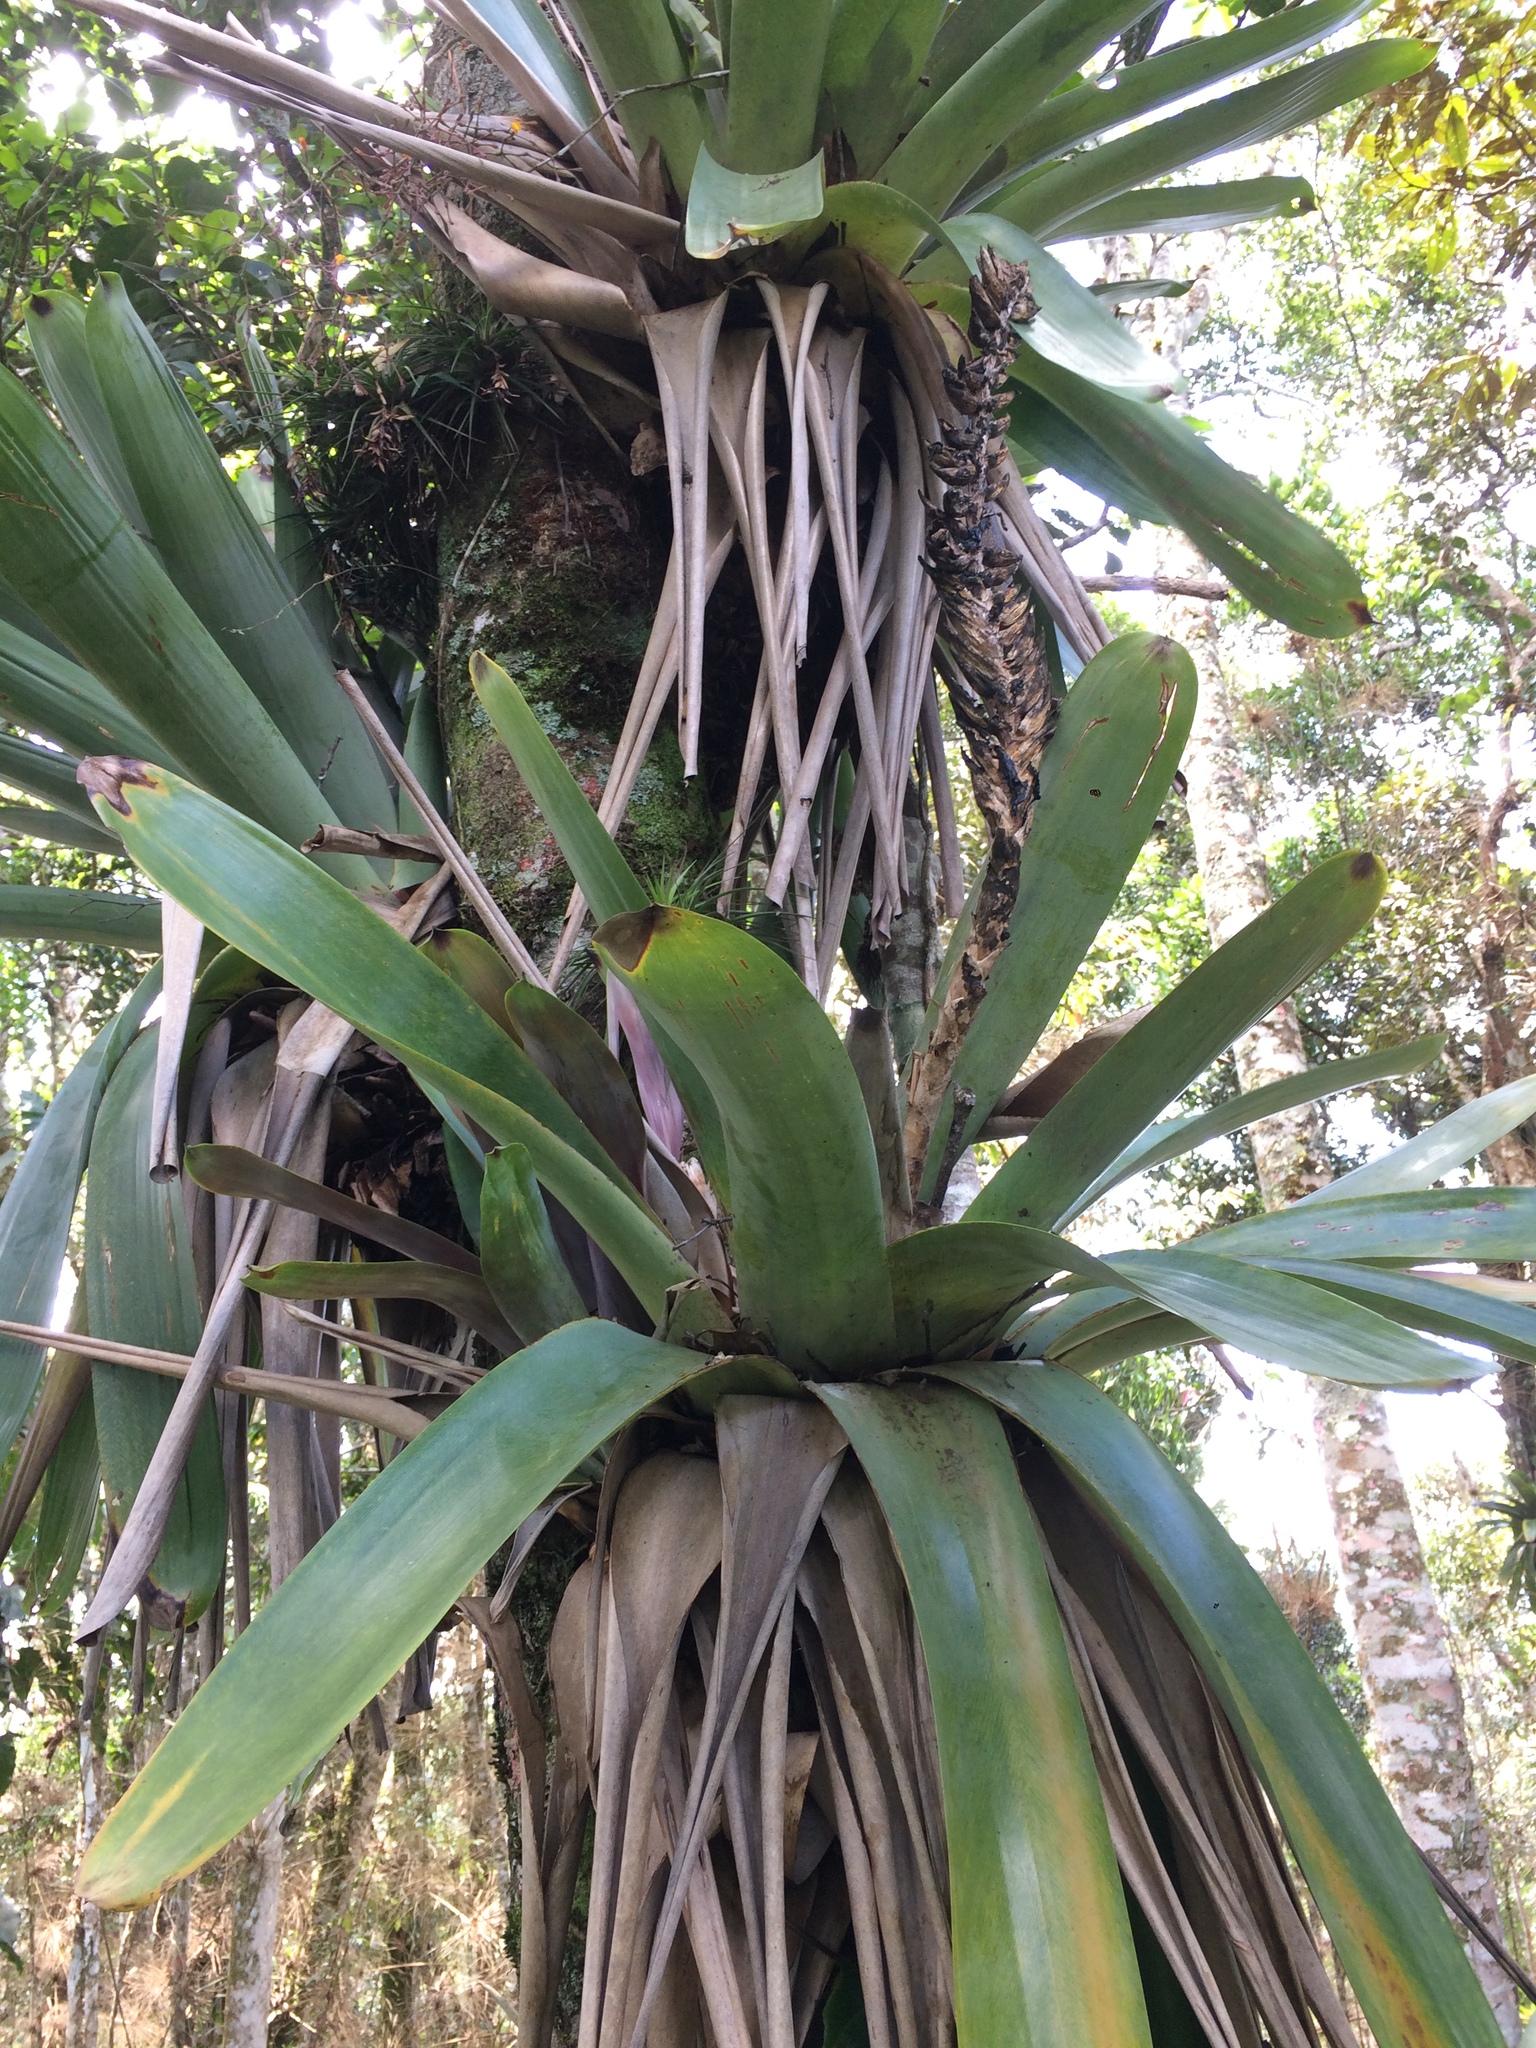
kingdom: Plantae
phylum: Tracheophyta
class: Liliopsida
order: Poales
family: Bromeliaceae
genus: Vriesea
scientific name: Vriesea bituminosa
